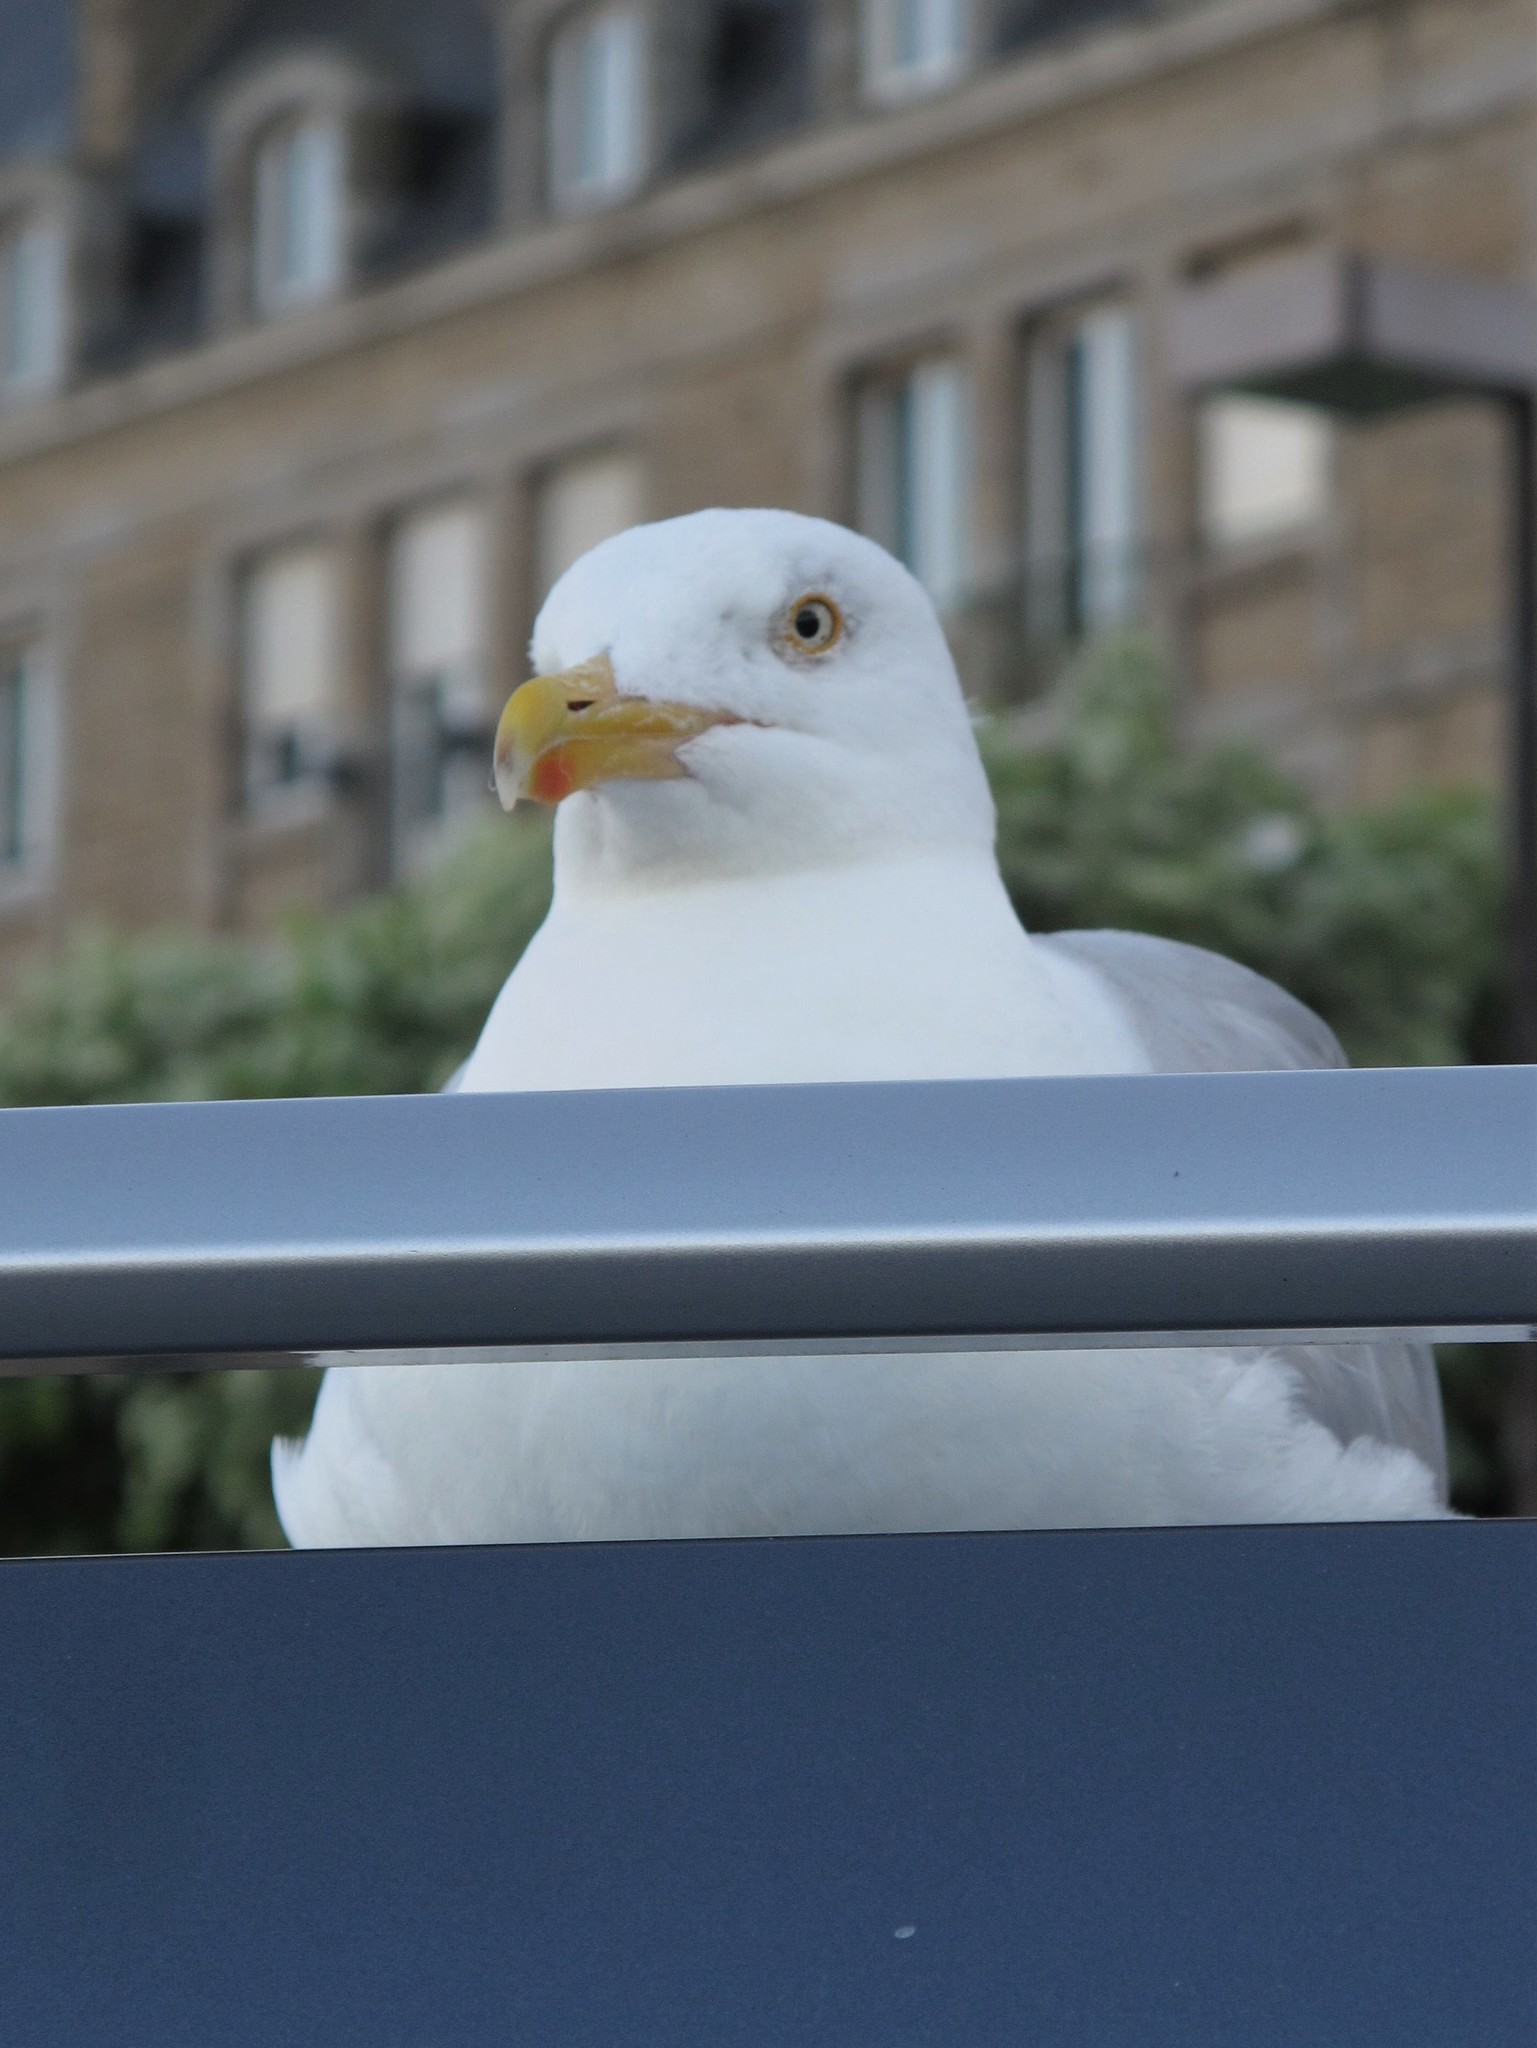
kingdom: Animalia
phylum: Chordata
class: Aves
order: Charadriiformes
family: Laridae
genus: Larus
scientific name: Larus argentatus
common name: Herring gull
